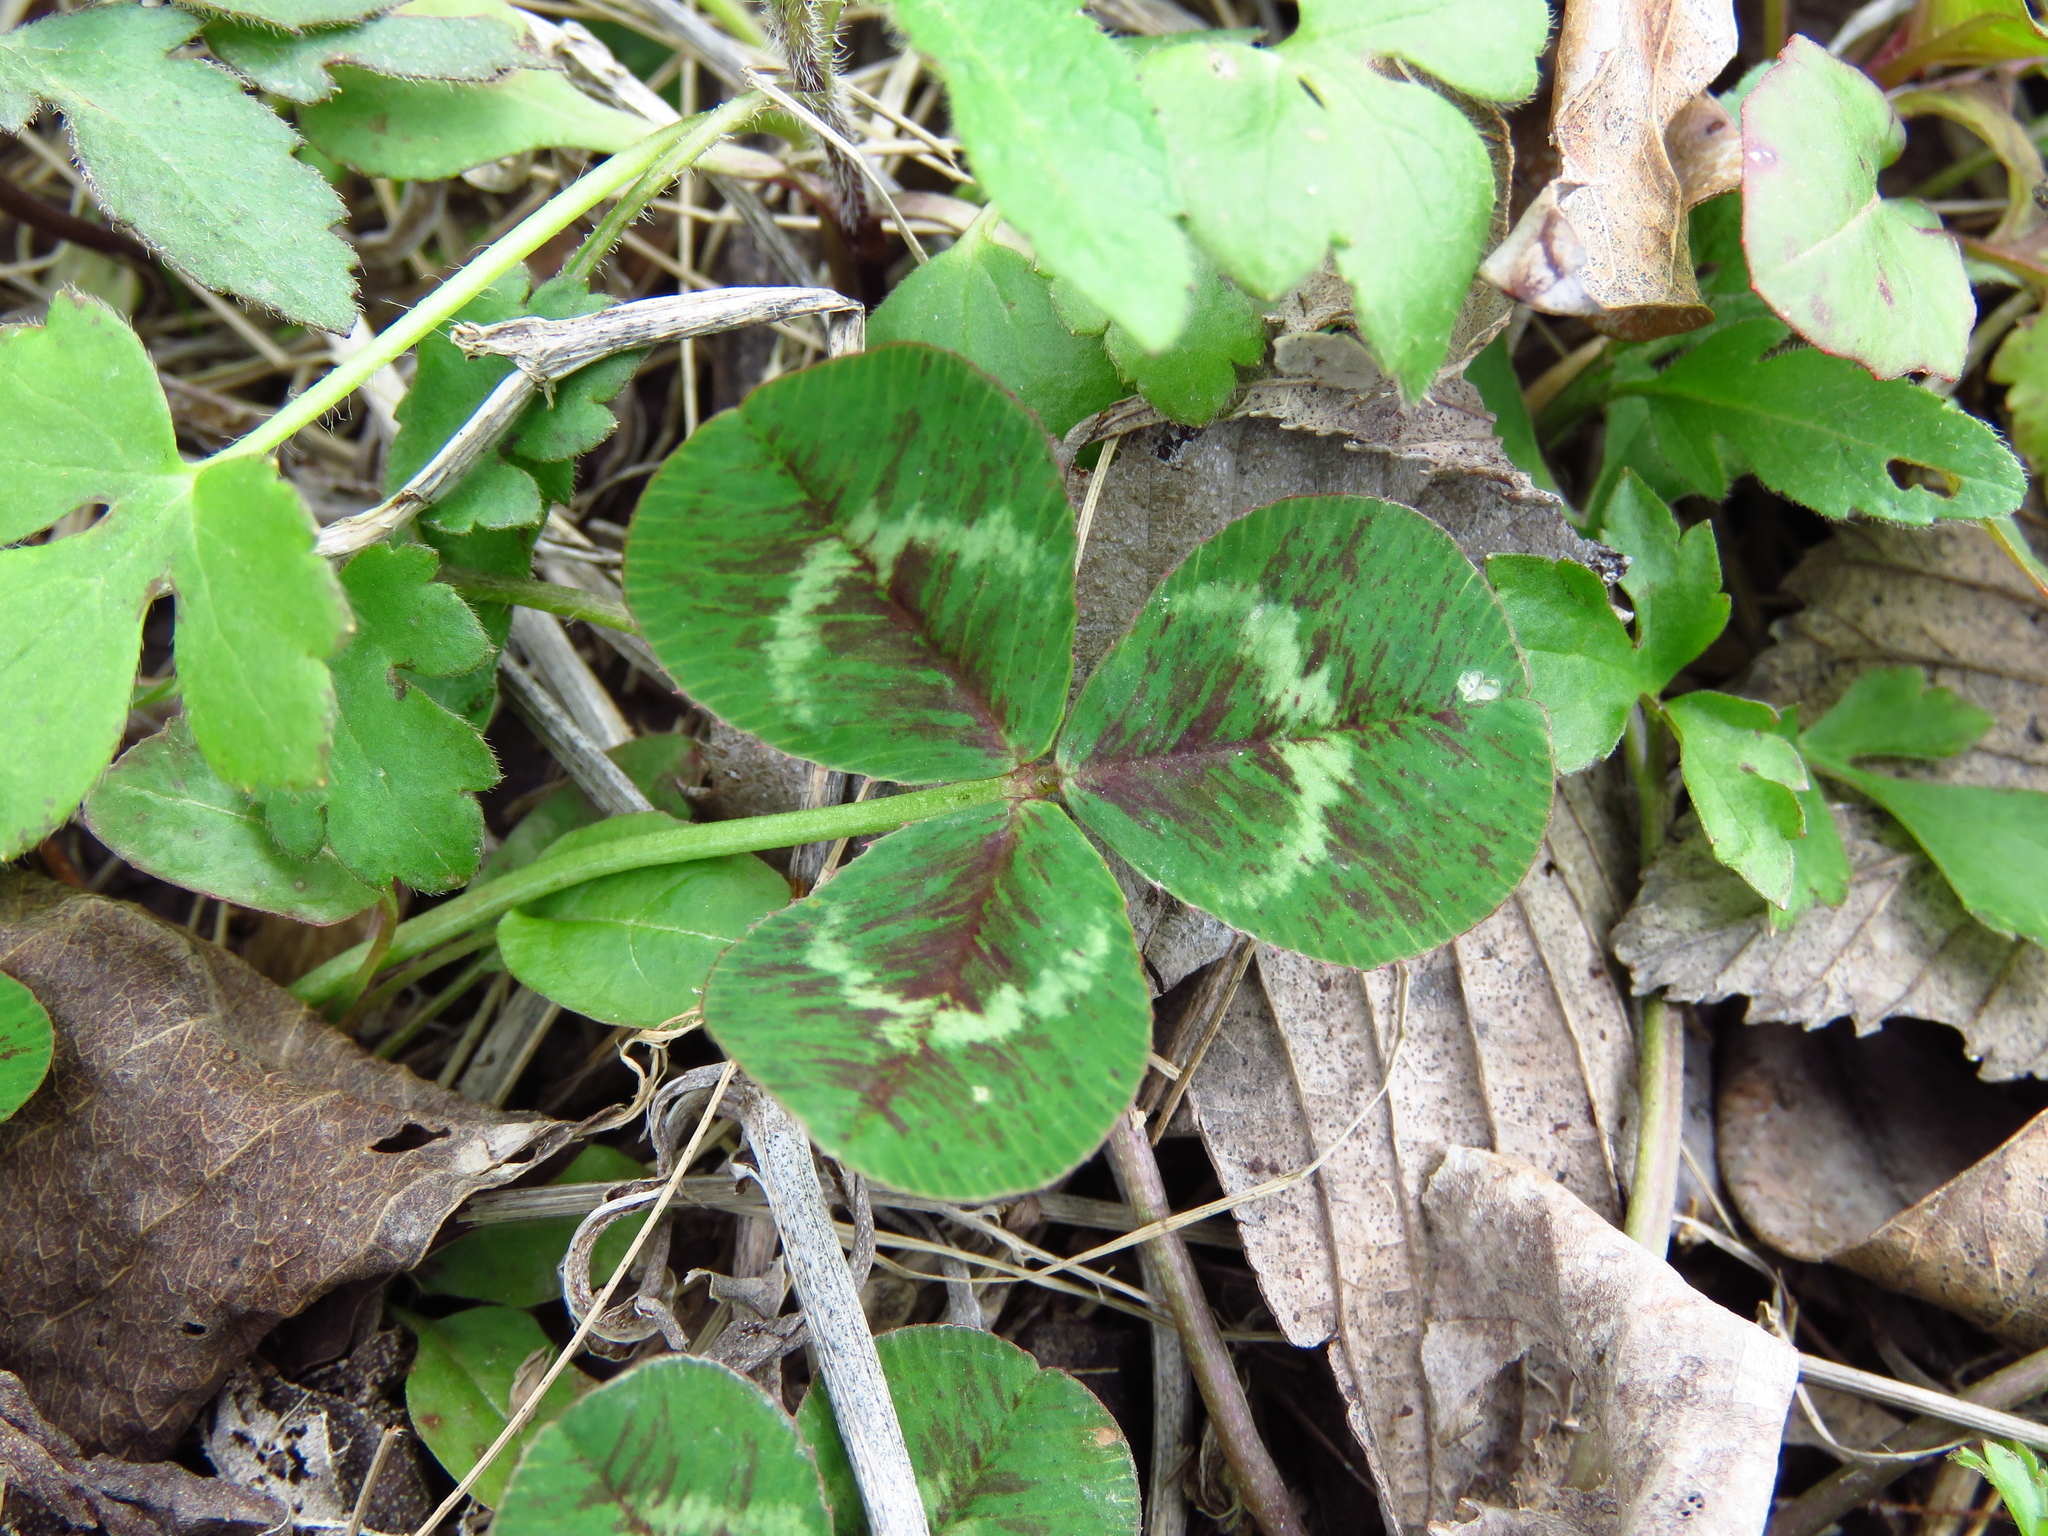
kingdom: Plantae
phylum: Tracheophyta
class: Magnoliopsida
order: Fabales
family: Fabaceae
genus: Trifolium
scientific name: Trifolium repens
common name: White clover
